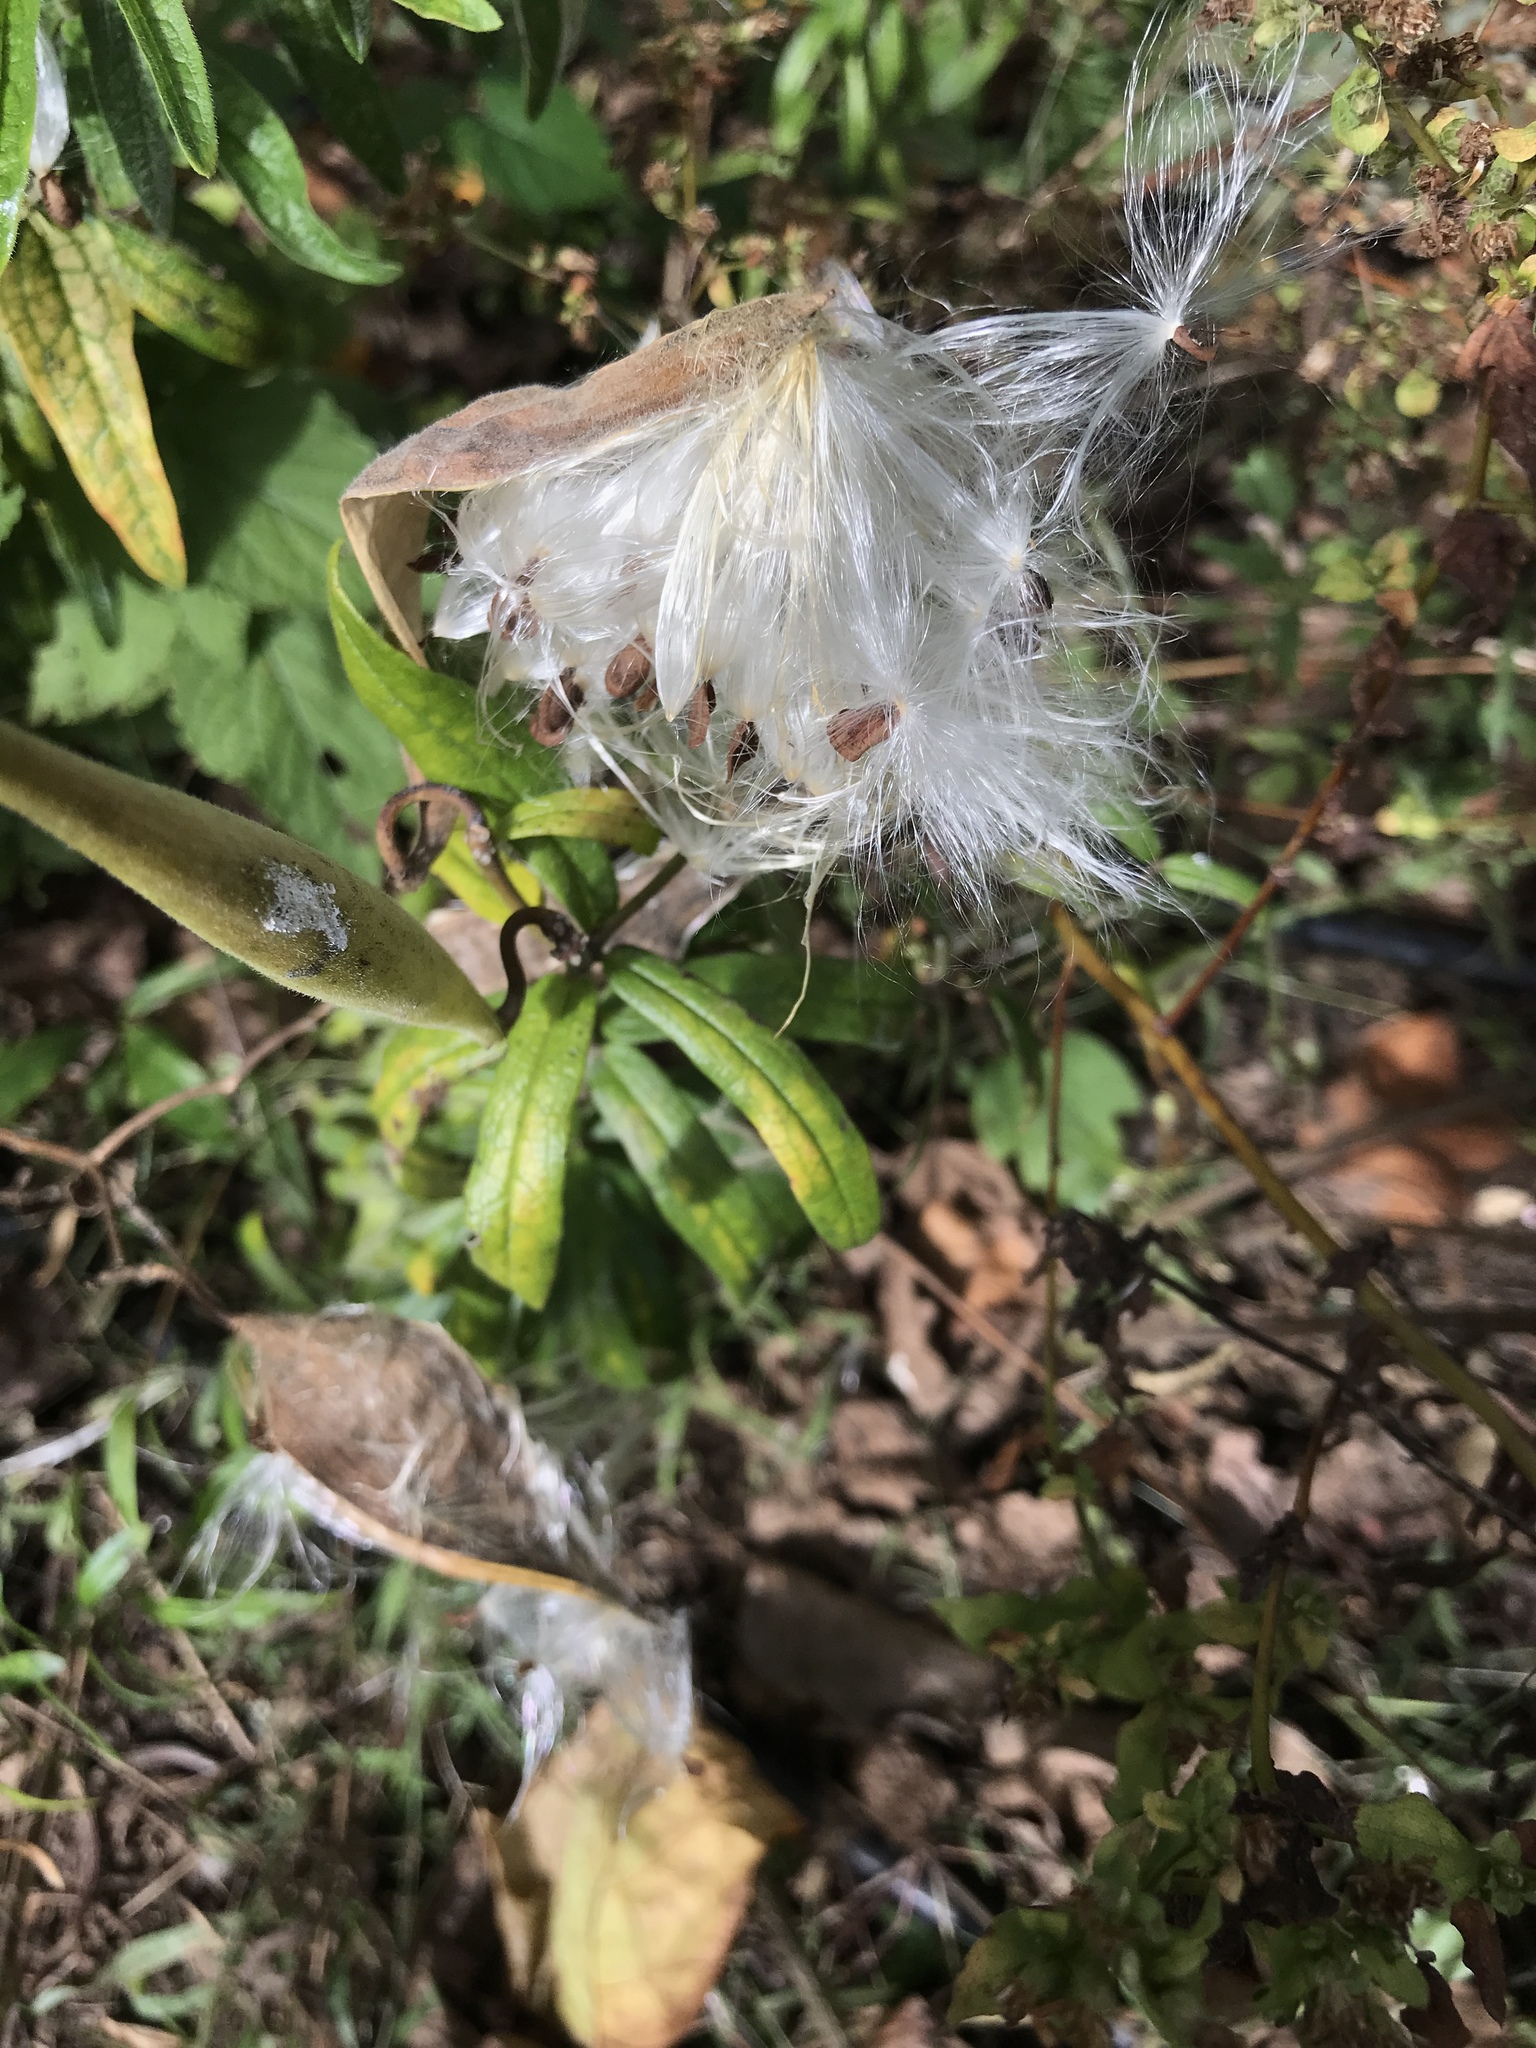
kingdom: Plantae
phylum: Tracheophyta
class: Magnoliopsida
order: Gentianales
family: Apocynaceae
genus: Asclepias
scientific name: Asclepias tuberosa
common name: Butterfly milkweed
